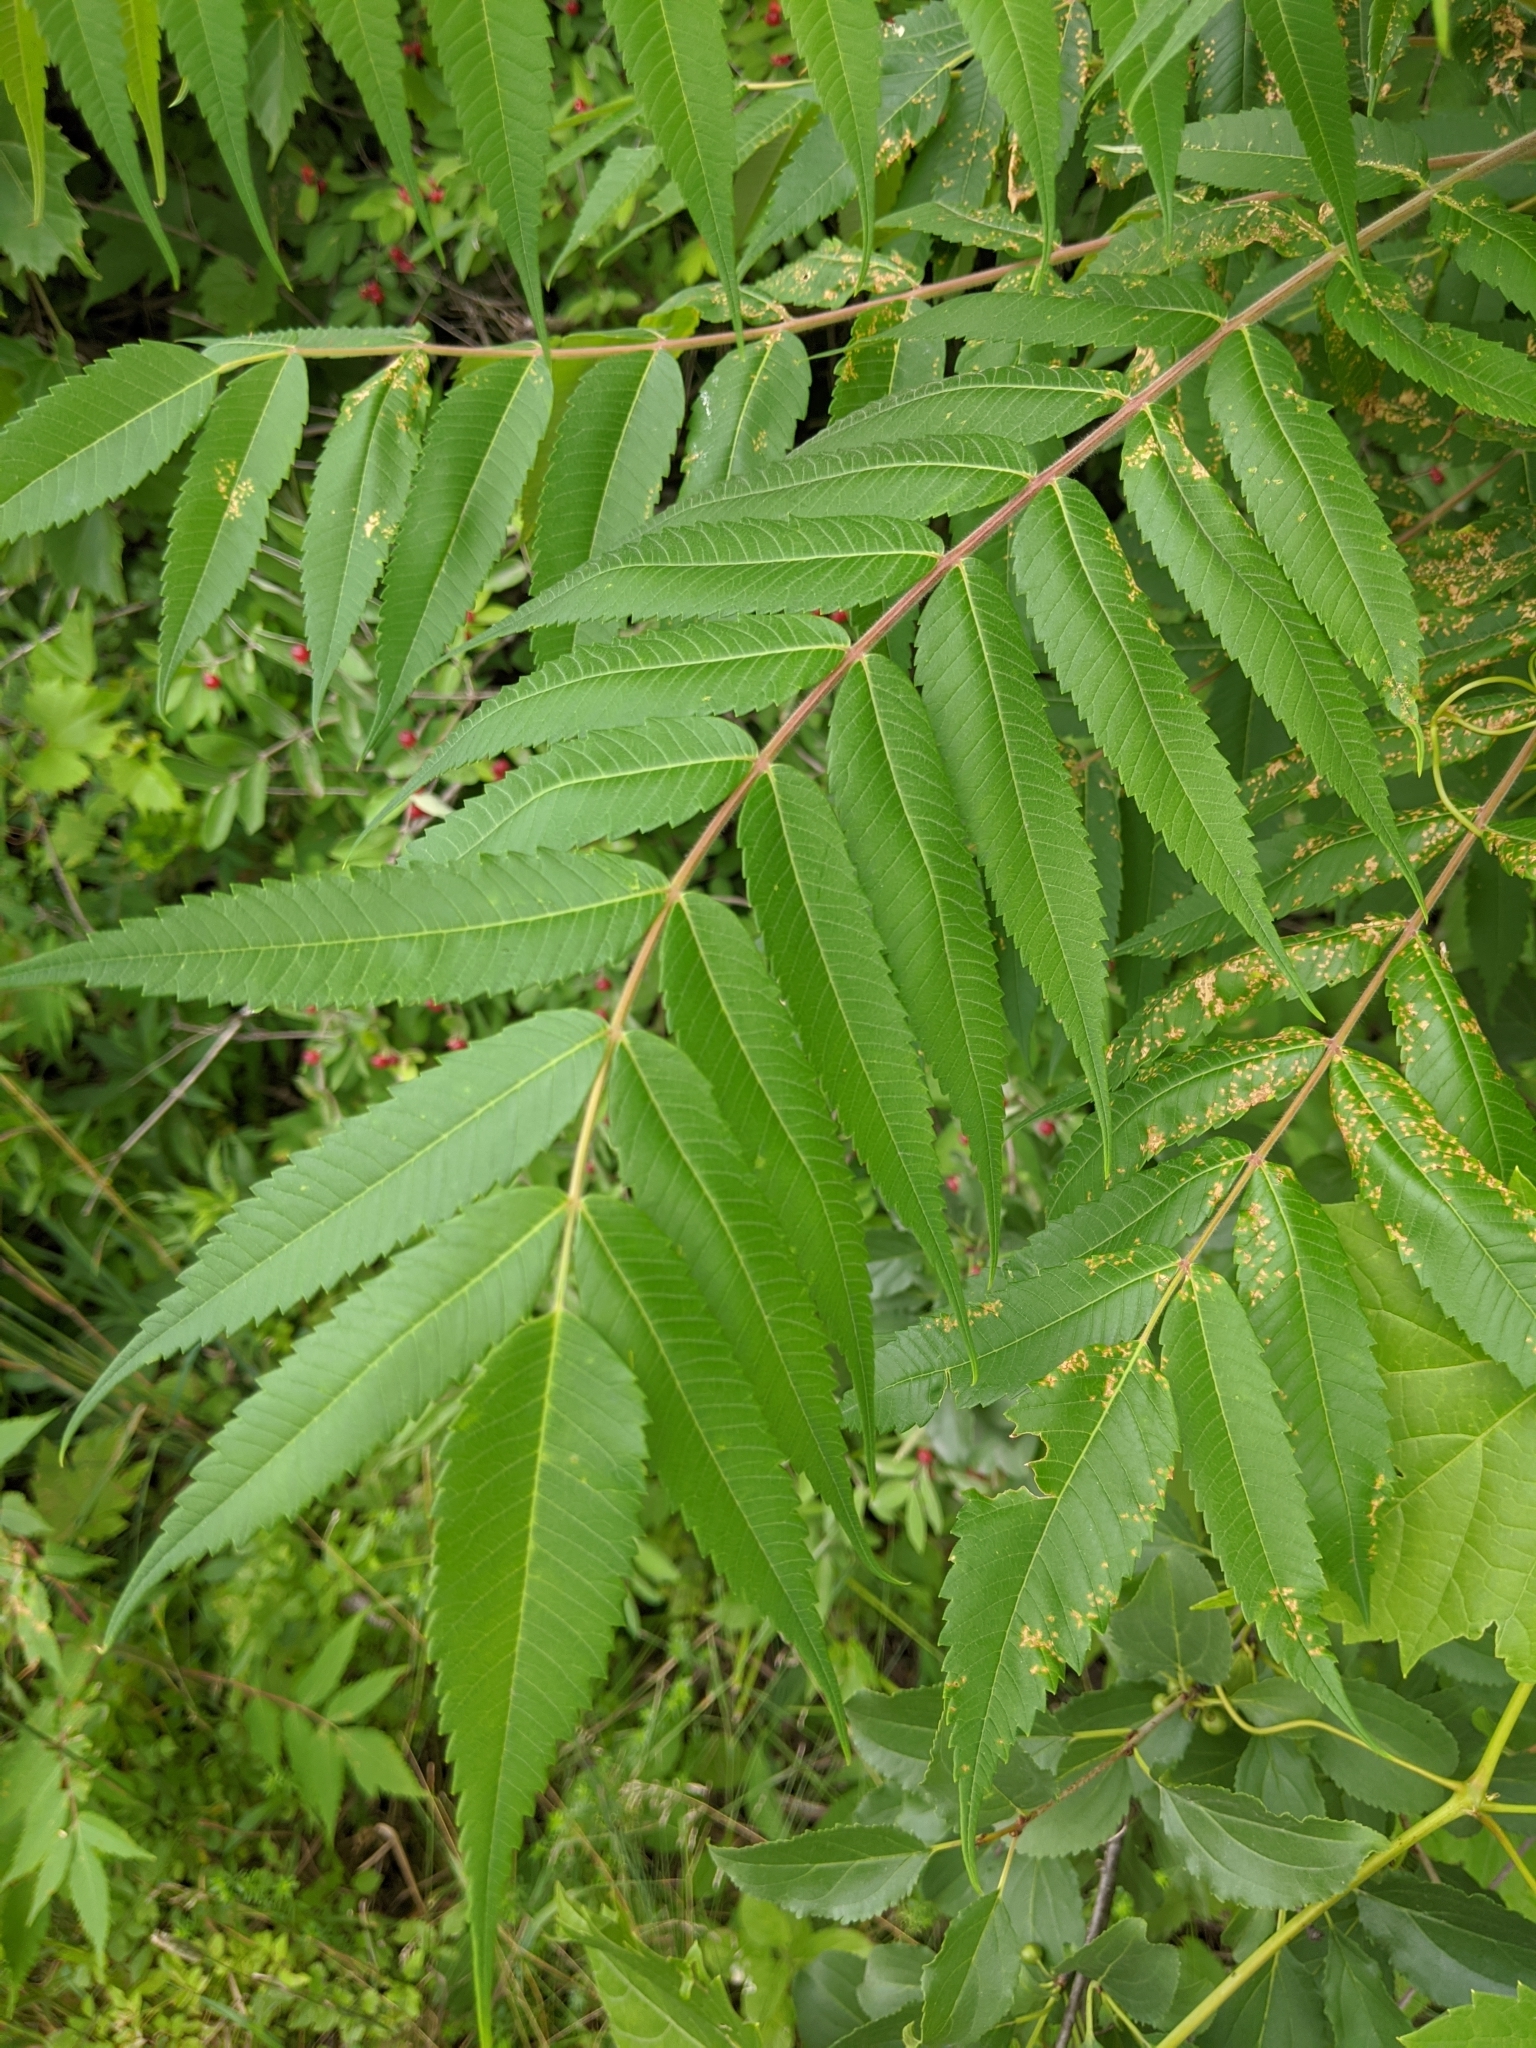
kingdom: Plantae
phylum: Tracheophyta
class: Magnoliopsida
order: Sapindales
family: Anacardiaceae
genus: Rhus
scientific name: Rhus typhina
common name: Staghorn sumac
